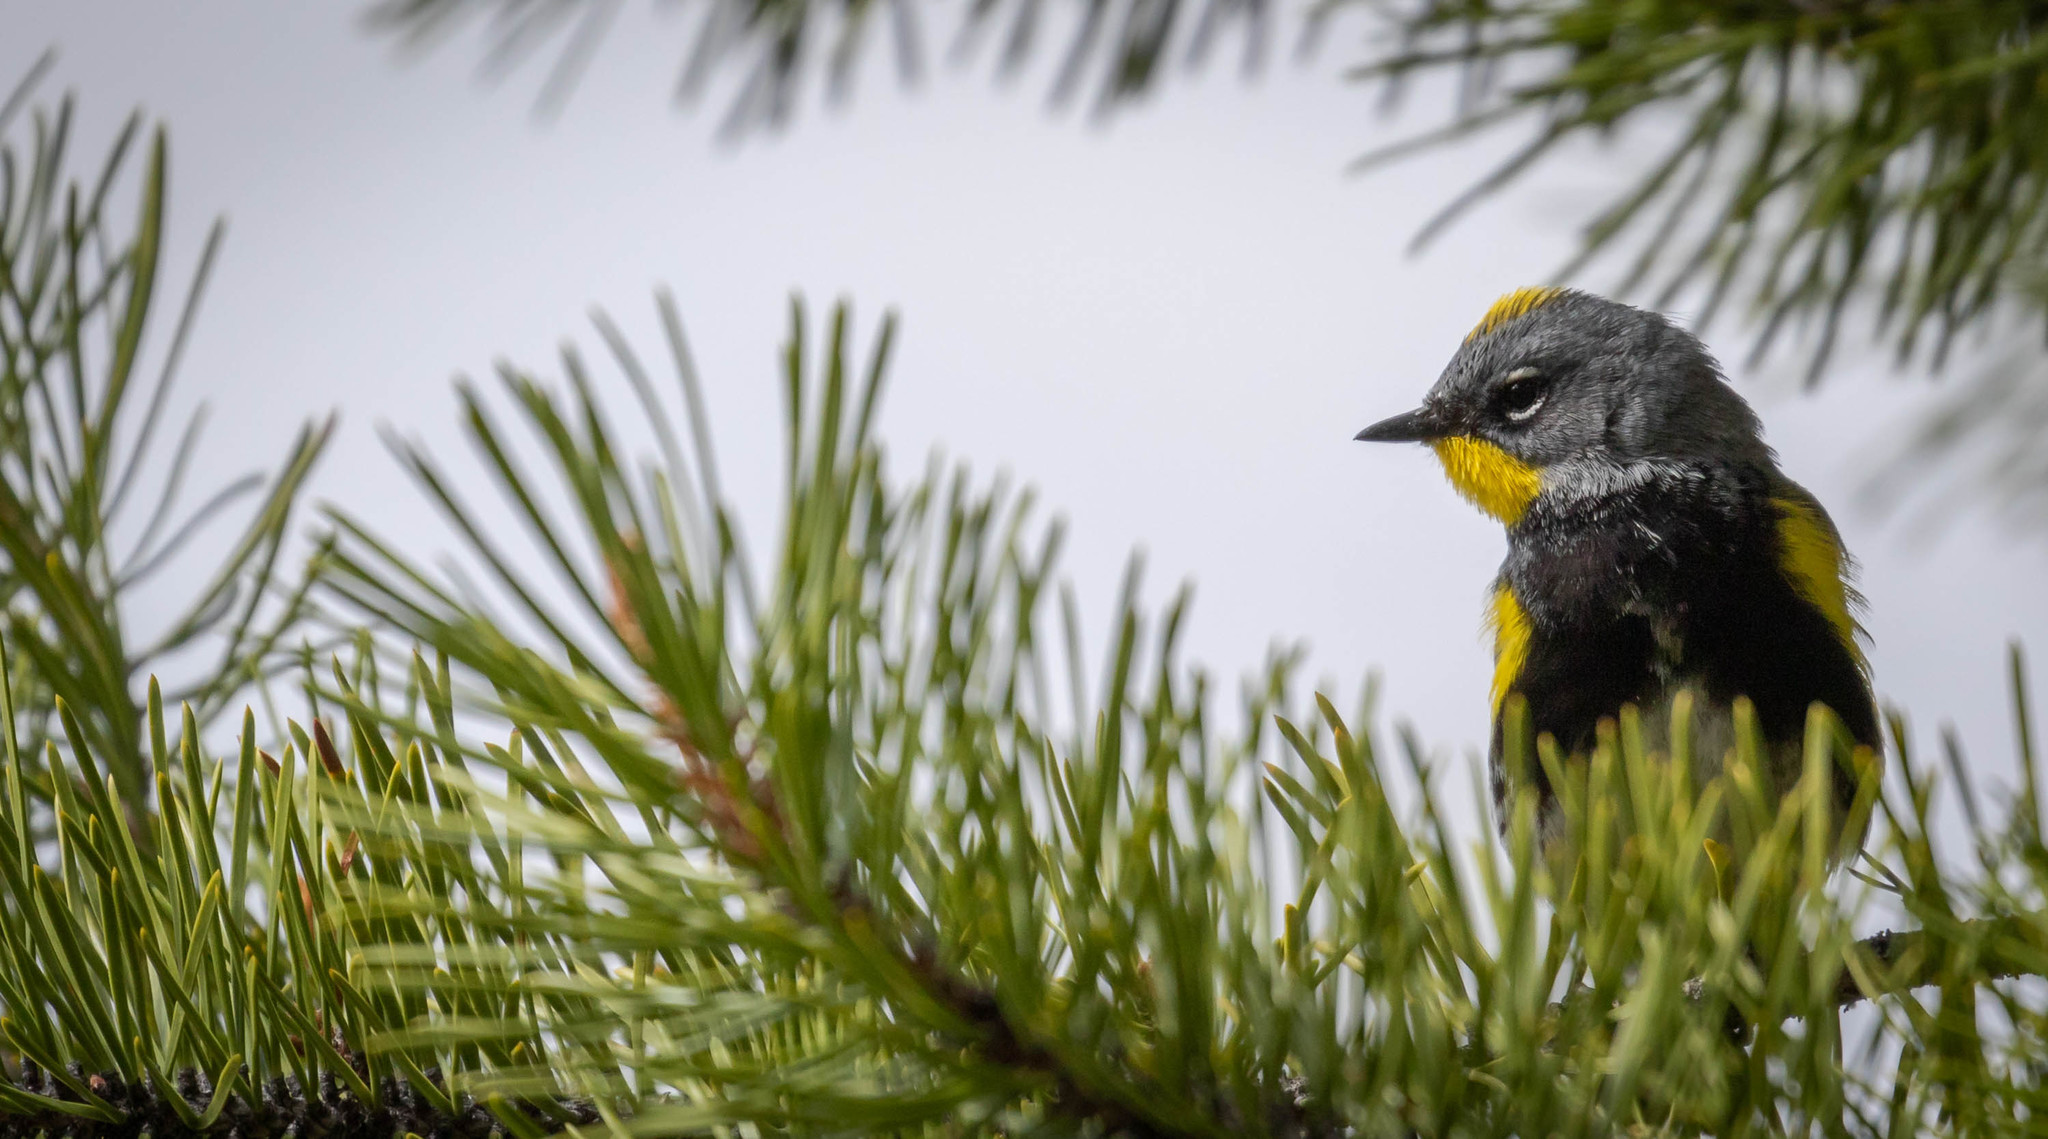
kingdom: Animalia
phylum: Chordata
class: Aves
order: Passeriformes
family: Parulidae
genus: Setophaga
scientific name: Setophaga coronata
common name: Myrtle warbler
